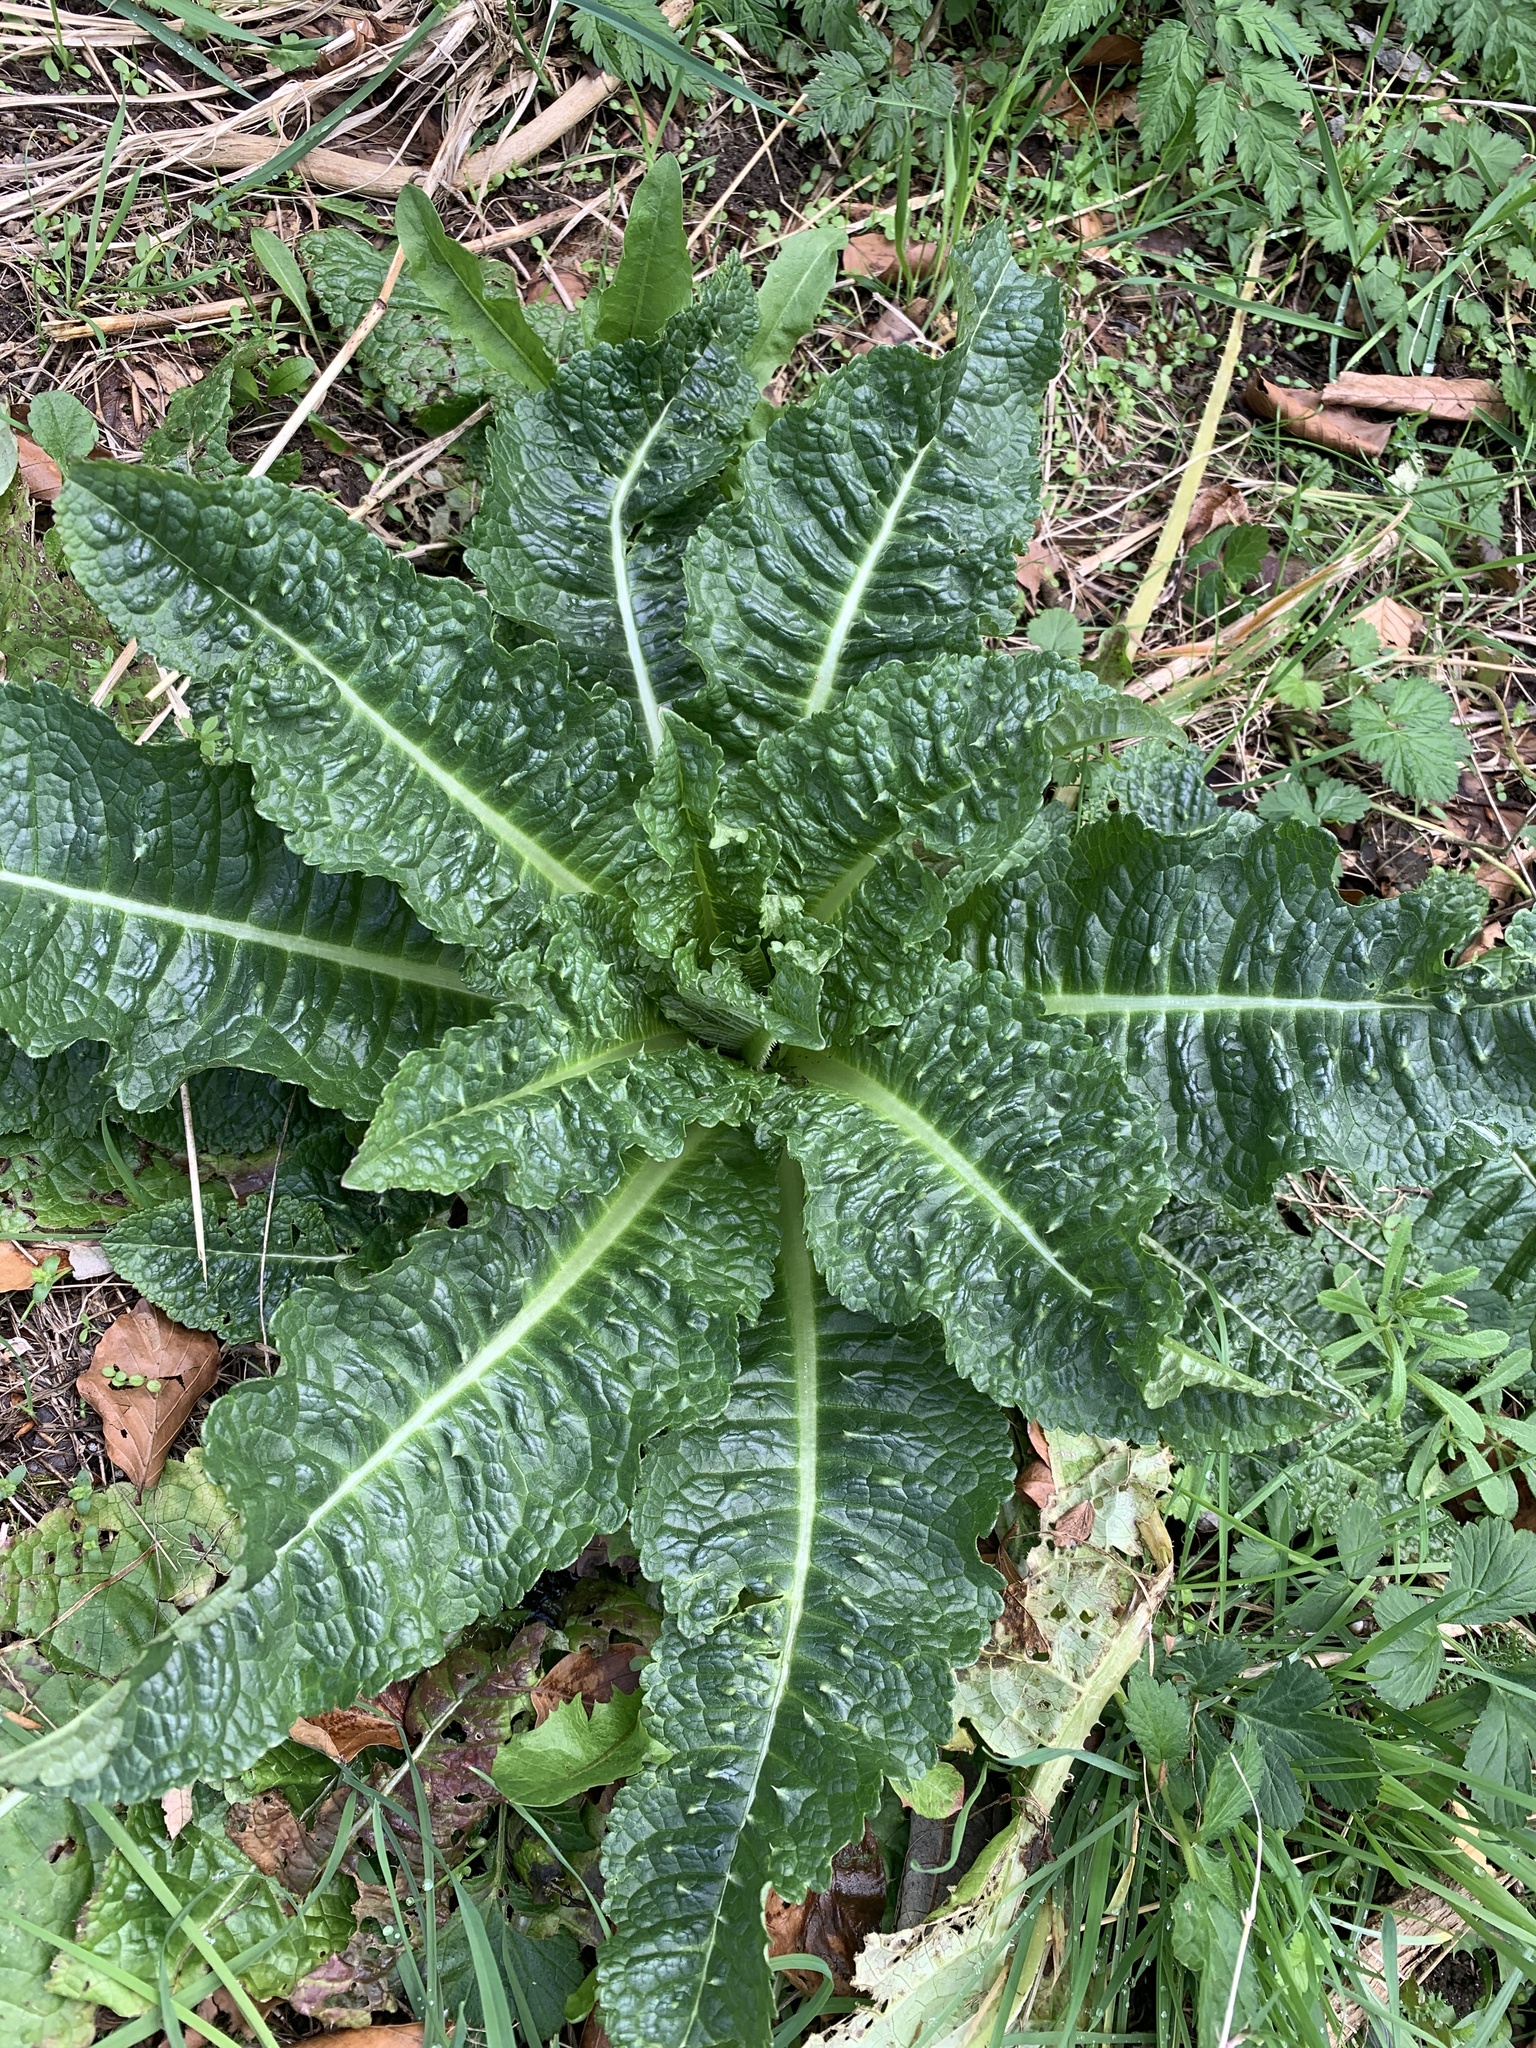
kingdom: Plantae
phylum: Tracheophyta
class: Magnoliopsida
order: Dipsacales
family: Caprifoliaceae
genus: Dipsacus
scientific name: Dipsacus fullonum
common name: Teasel
